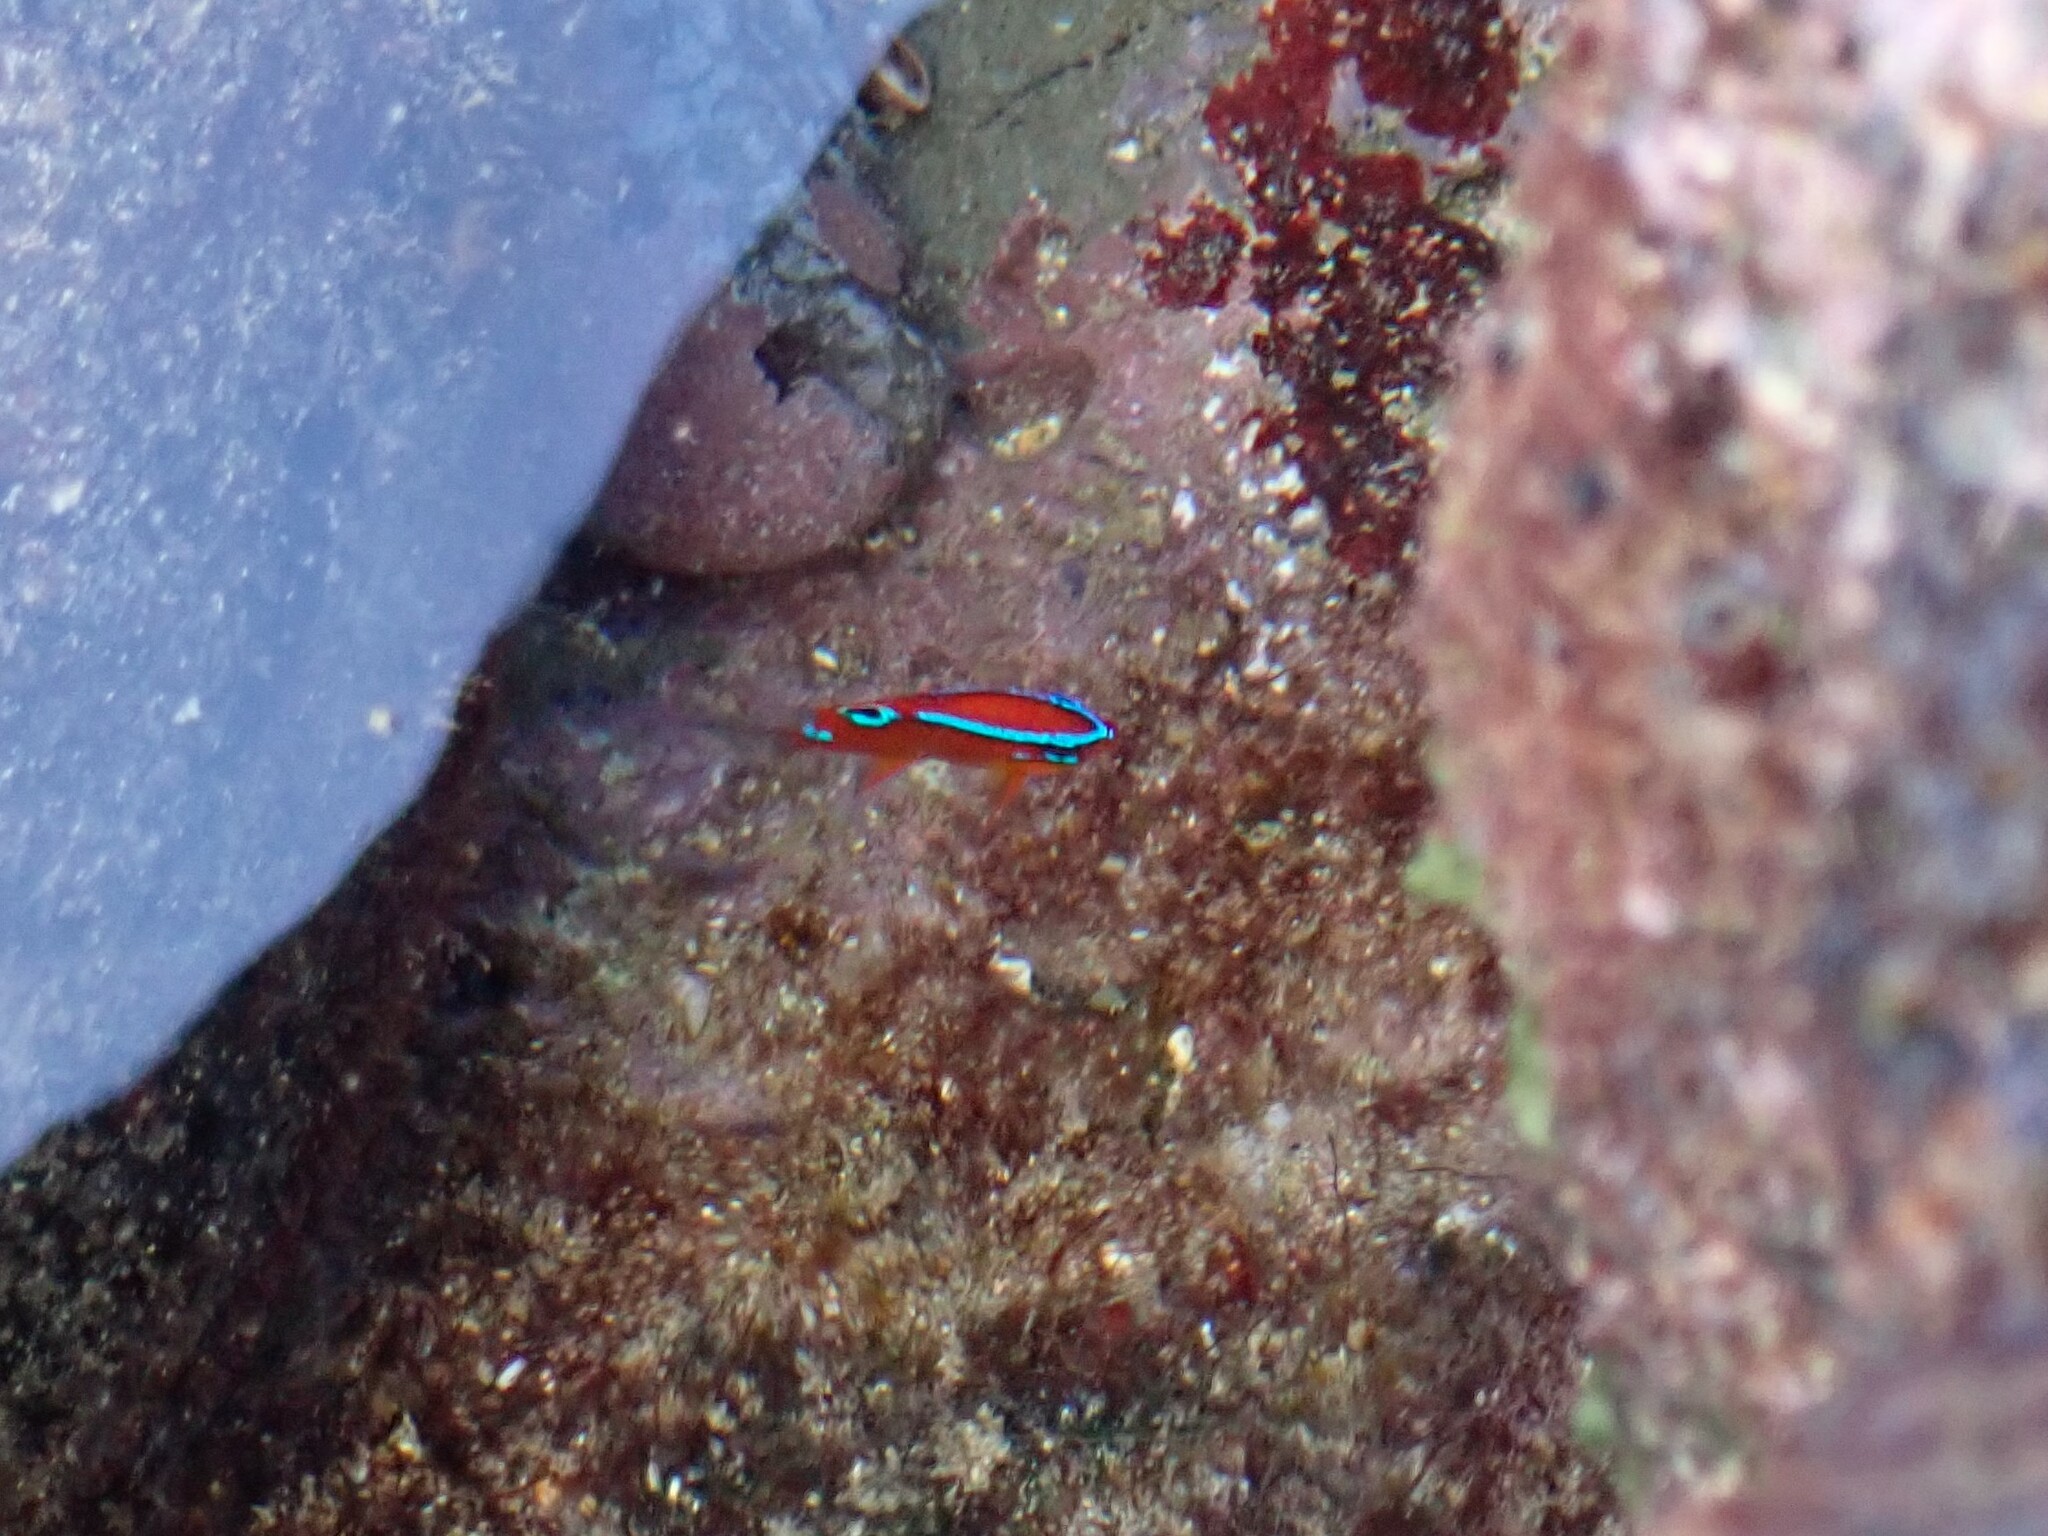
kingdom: Animalia
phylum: Chordata
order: Perciformes
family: Pomacentridae
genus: Neoglyphidodon
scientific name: Neoglyphidodon polyacanthus
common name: Multi-spined damsel
